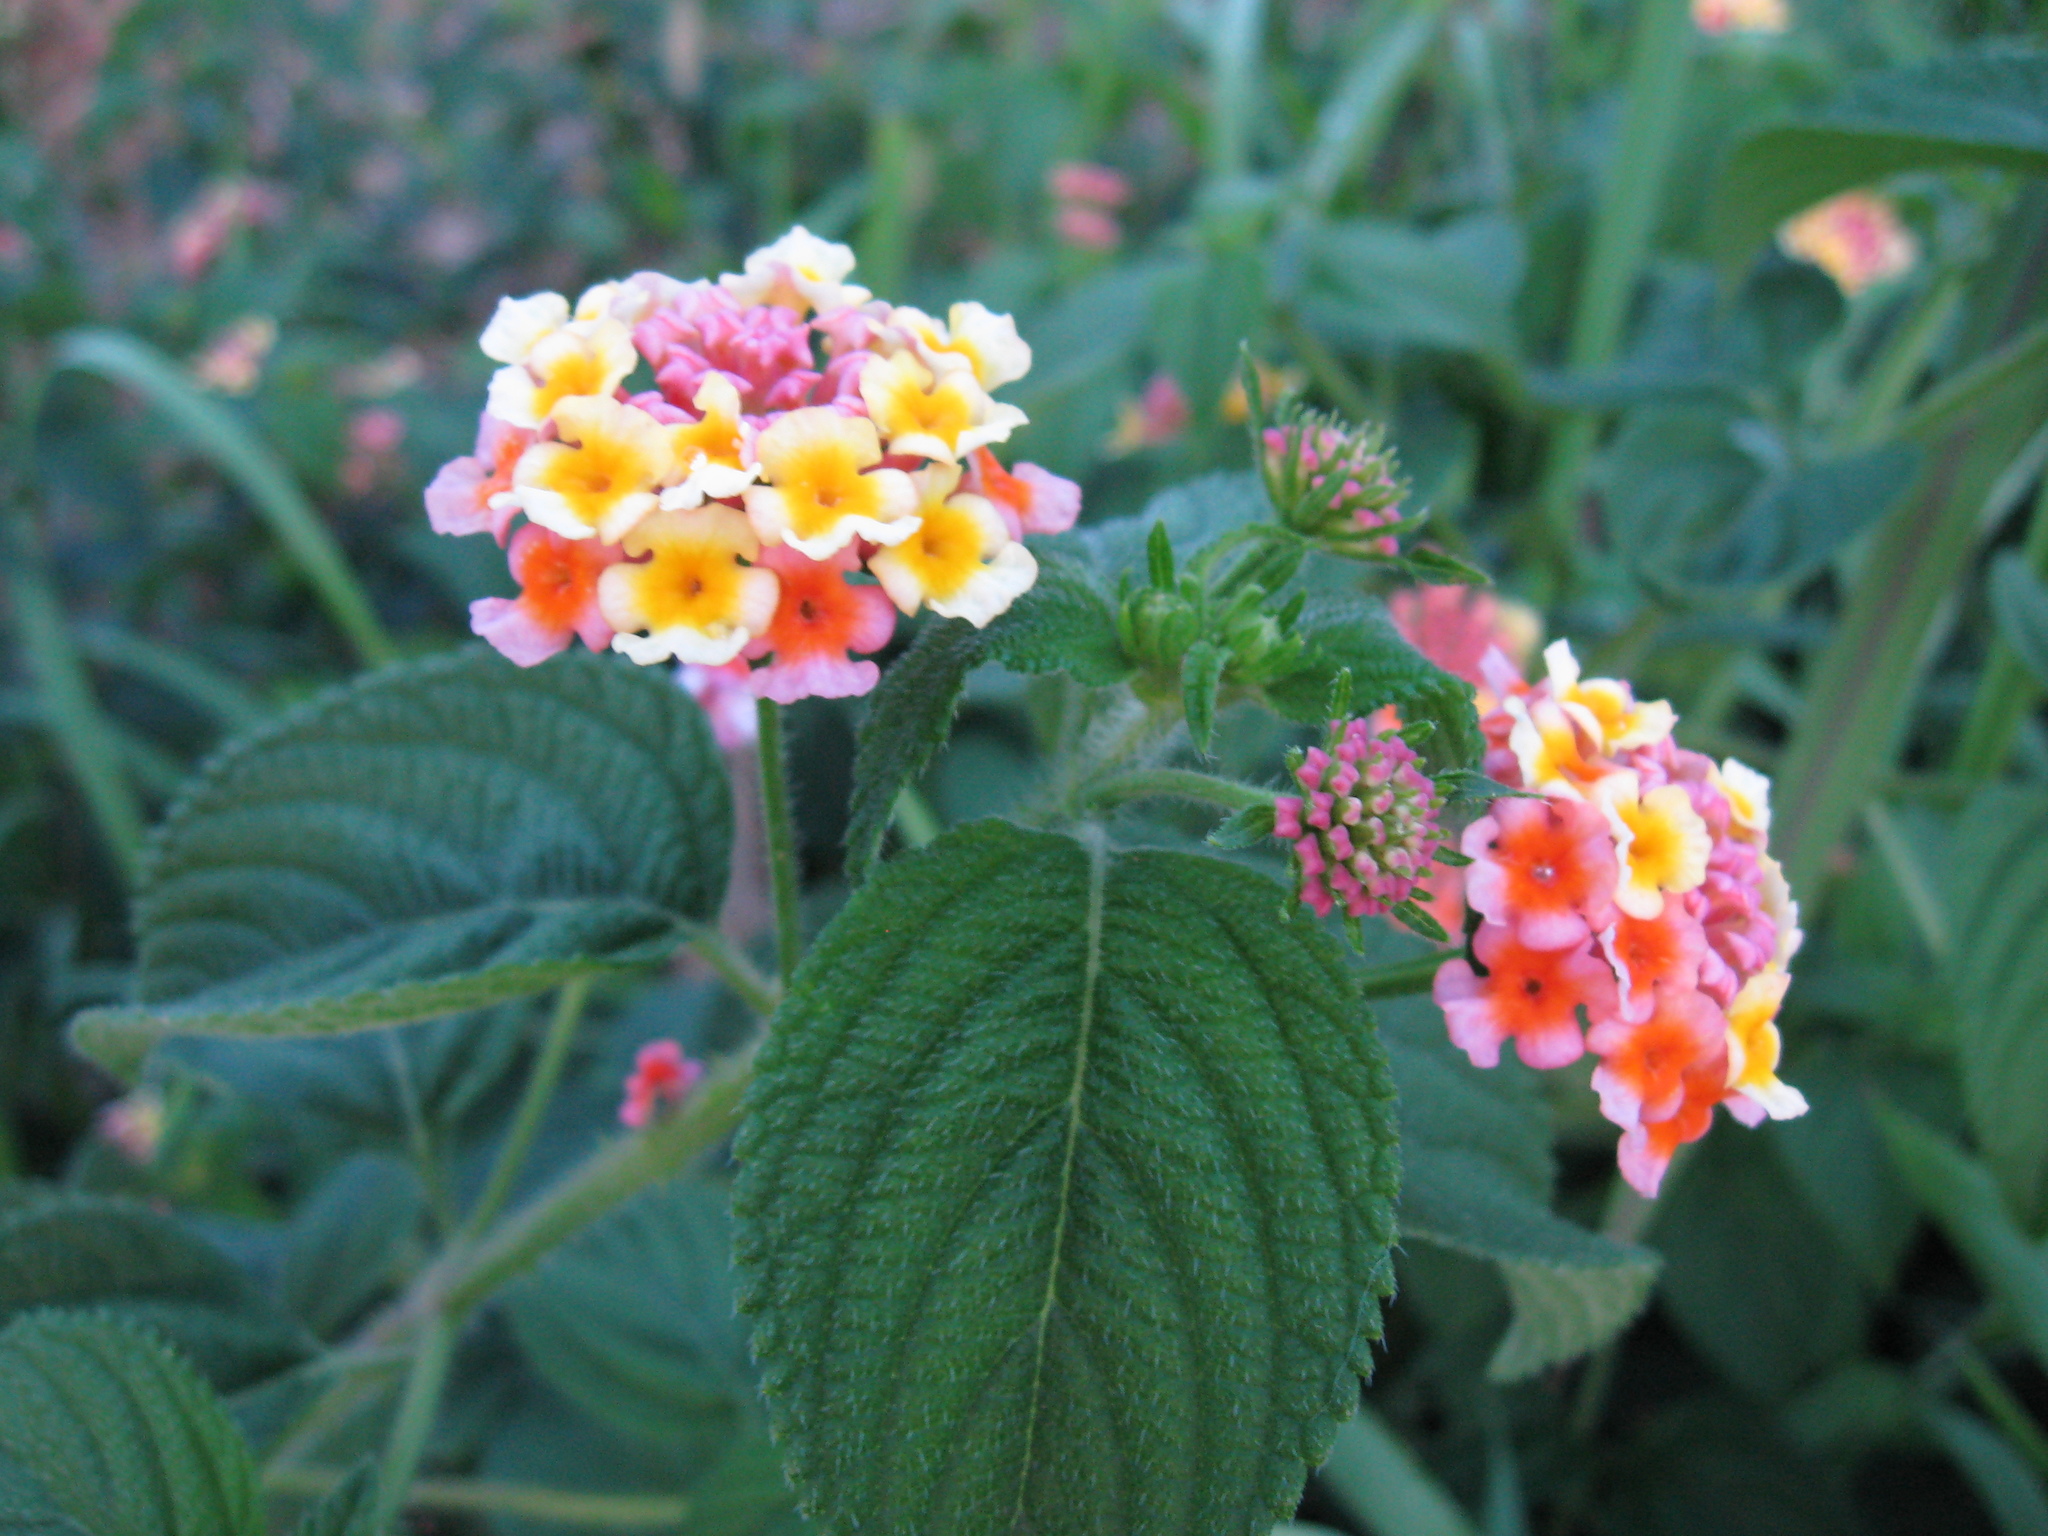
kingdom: Plantae
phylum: Tracheophyta
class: Magnoliopsida
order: Lamiales
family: Verbenaceae
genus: Lantana
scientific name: Lantana camara
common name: Lantana
